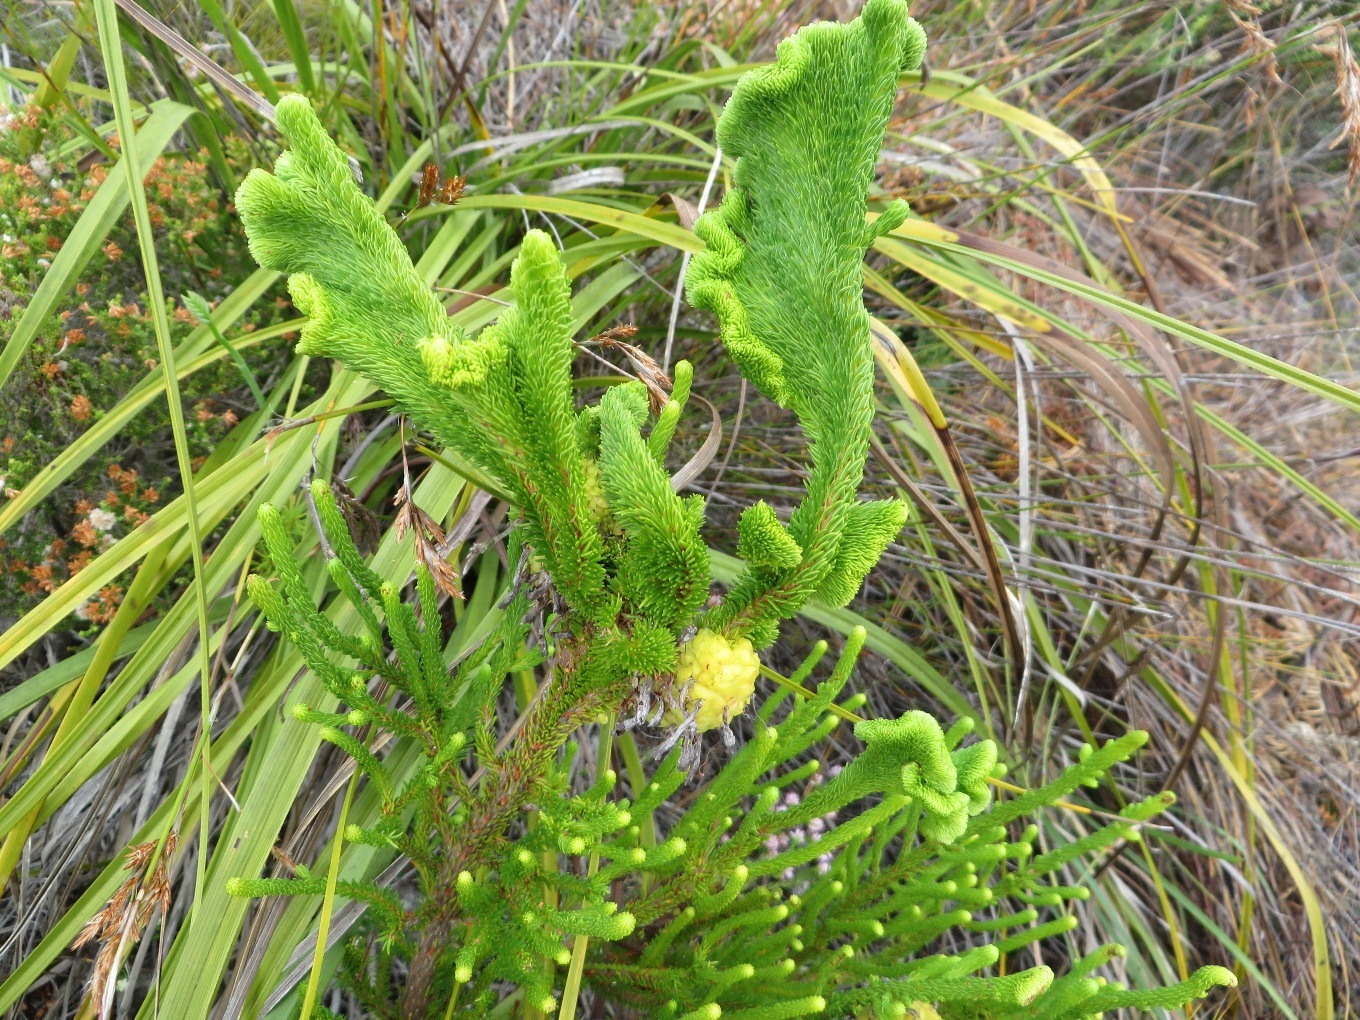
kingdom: Plantae
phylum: Tracheophyta
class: Magnoliopsida
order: Ericales
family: Ericaceae
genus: Erica
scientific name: Erica sessiliflora
